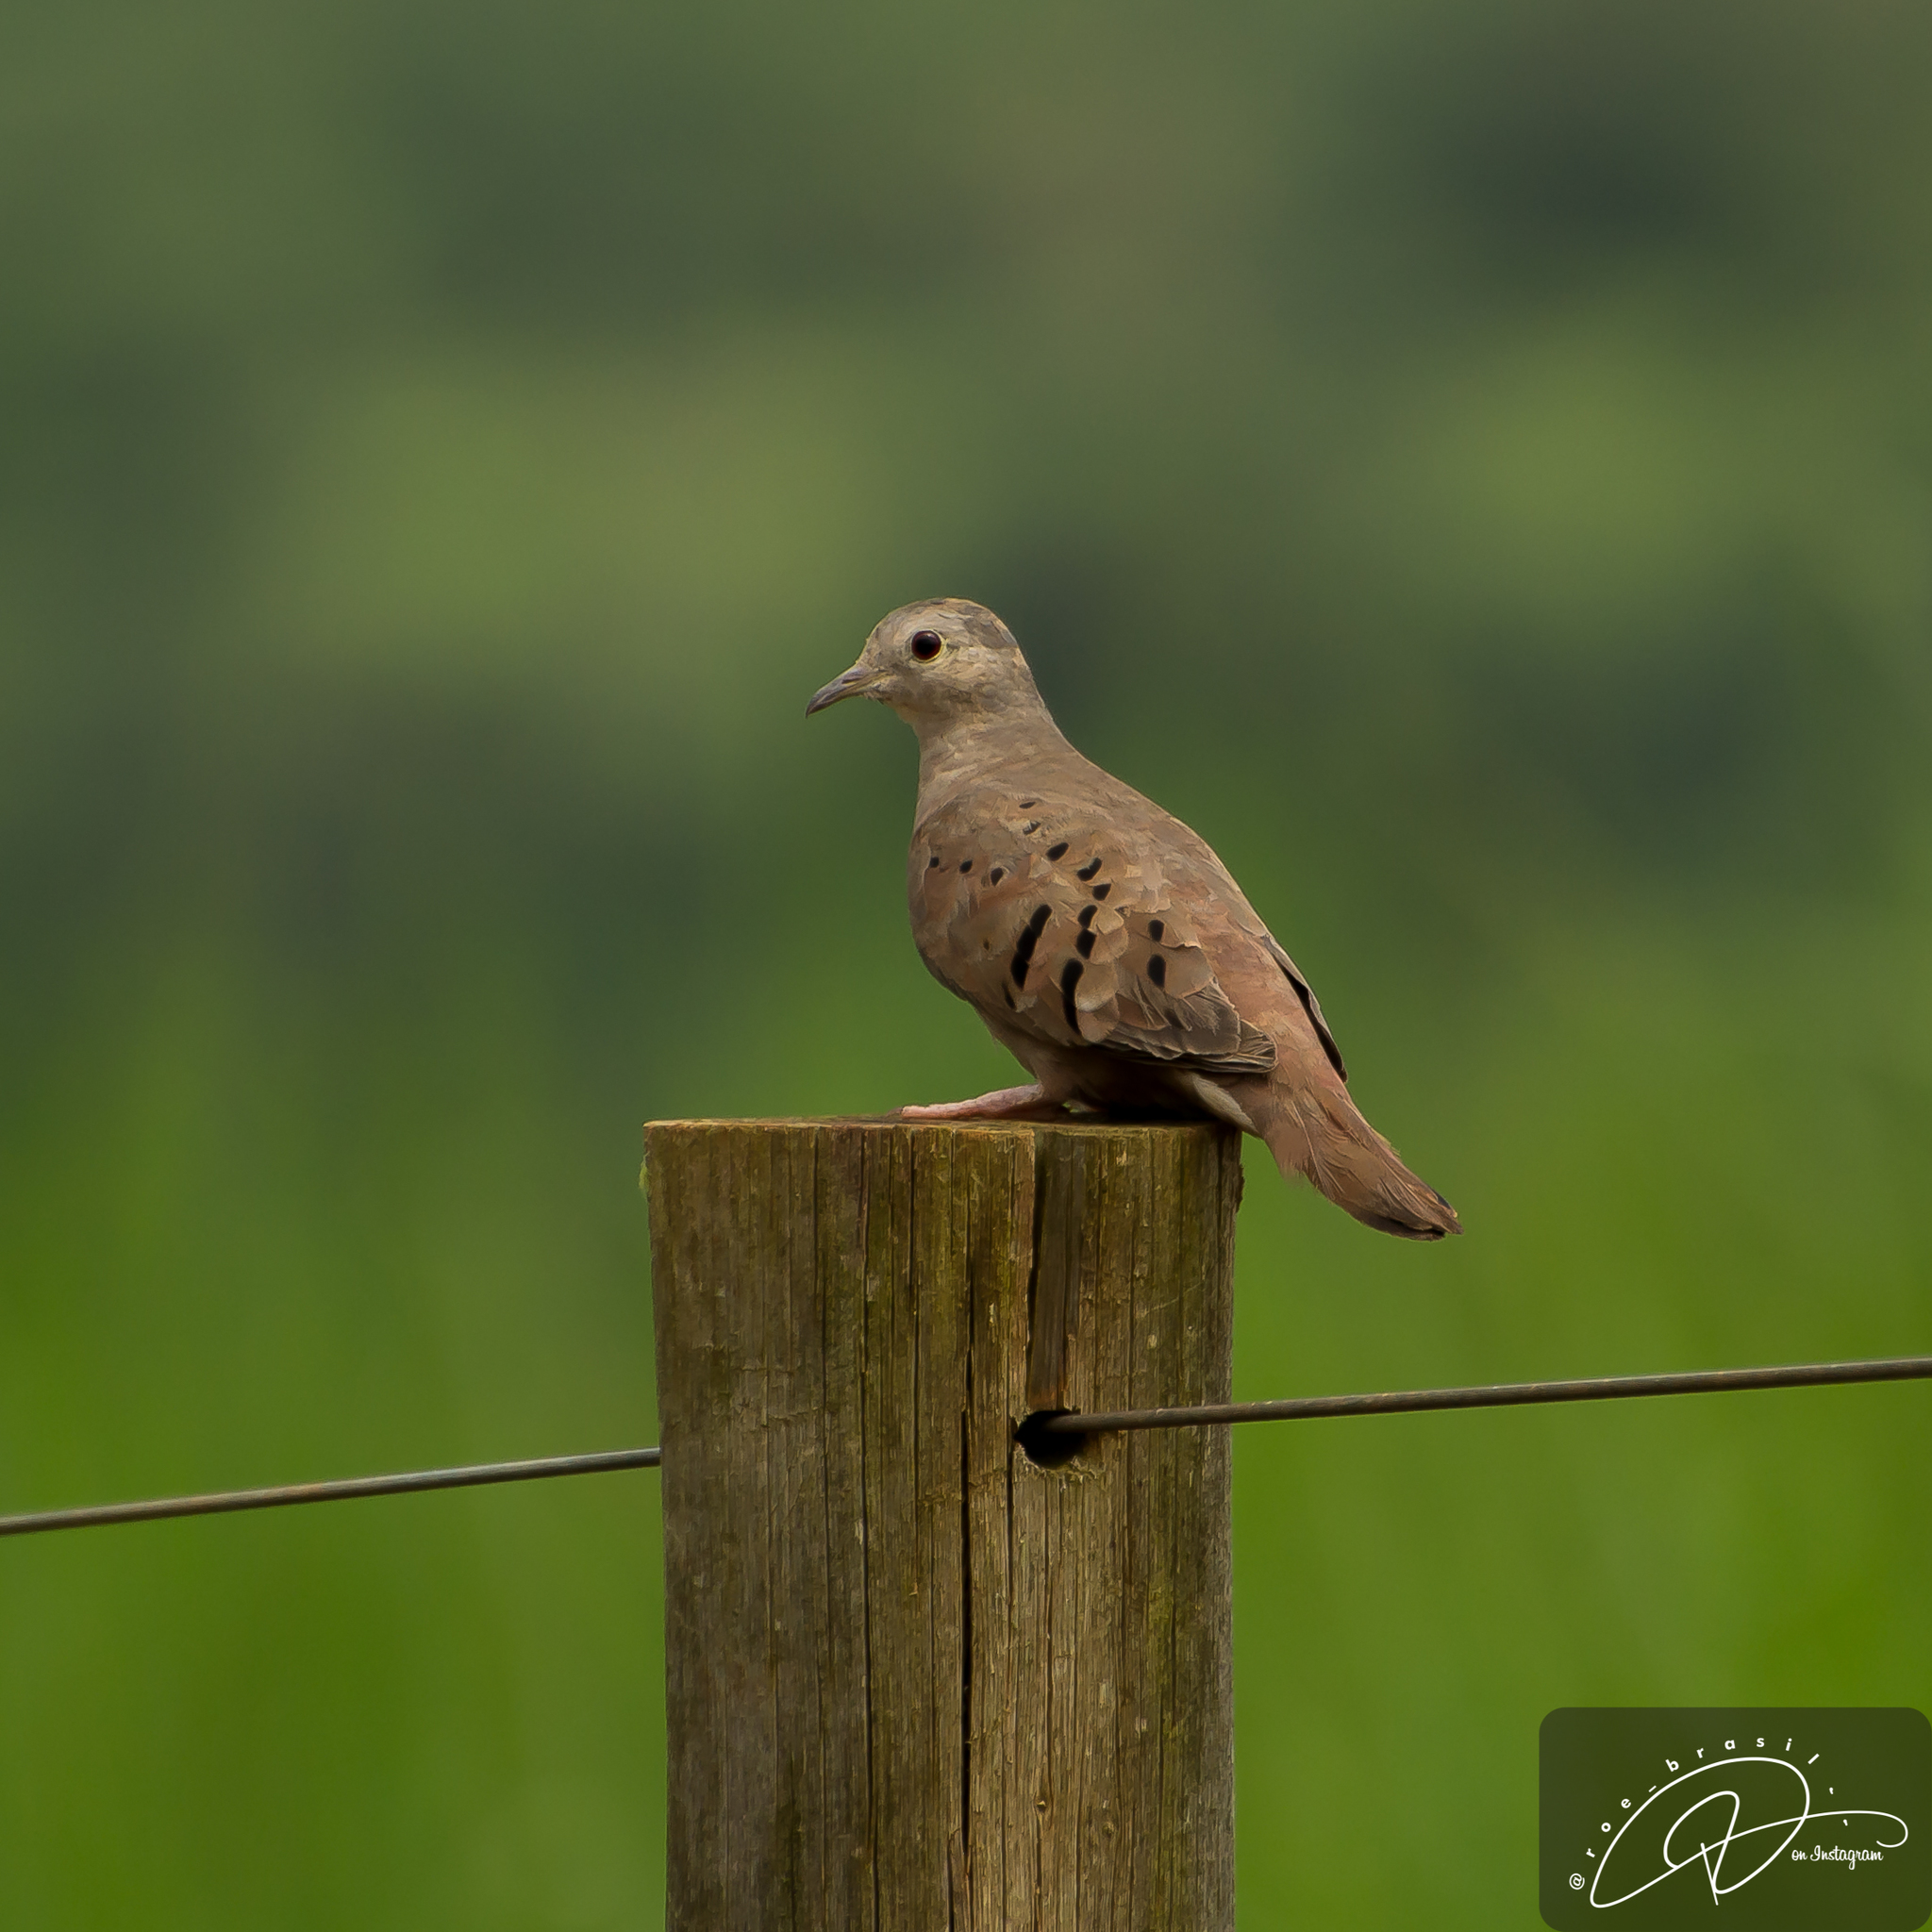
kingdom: Animalia
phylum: Chordata
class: Aves
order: Columbiformes
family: Columbidae
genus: Columbina
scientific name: Columbina talpacoti
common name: Ruddy ground dove
